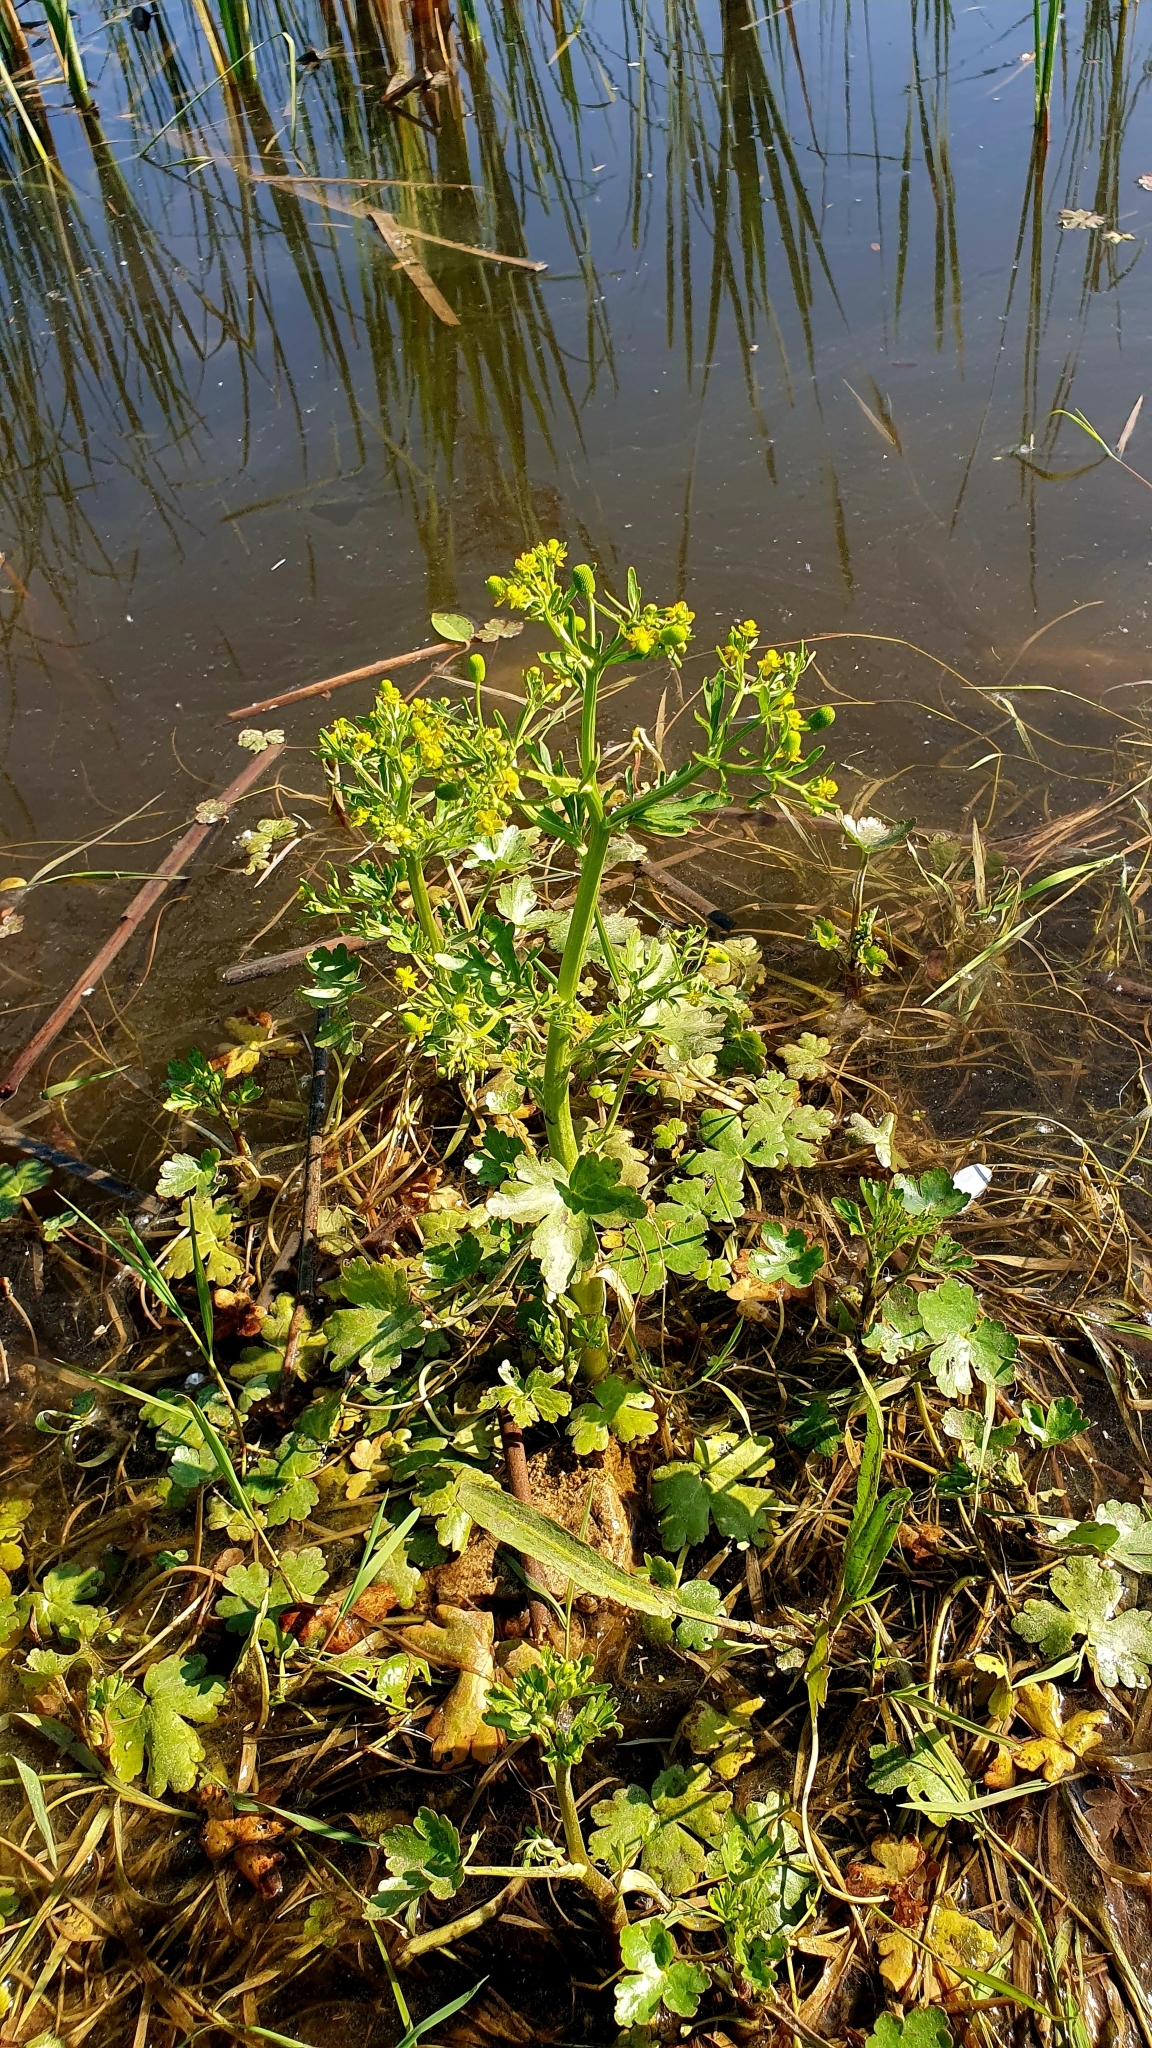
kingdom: Plantae
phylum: Tracheophyta
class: Magnoliopsida
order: Ranunculales
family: Ranunculaceae
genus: Ranunculus
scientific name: Ranunculus sceleratus
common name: Celery-leaved buttercup
